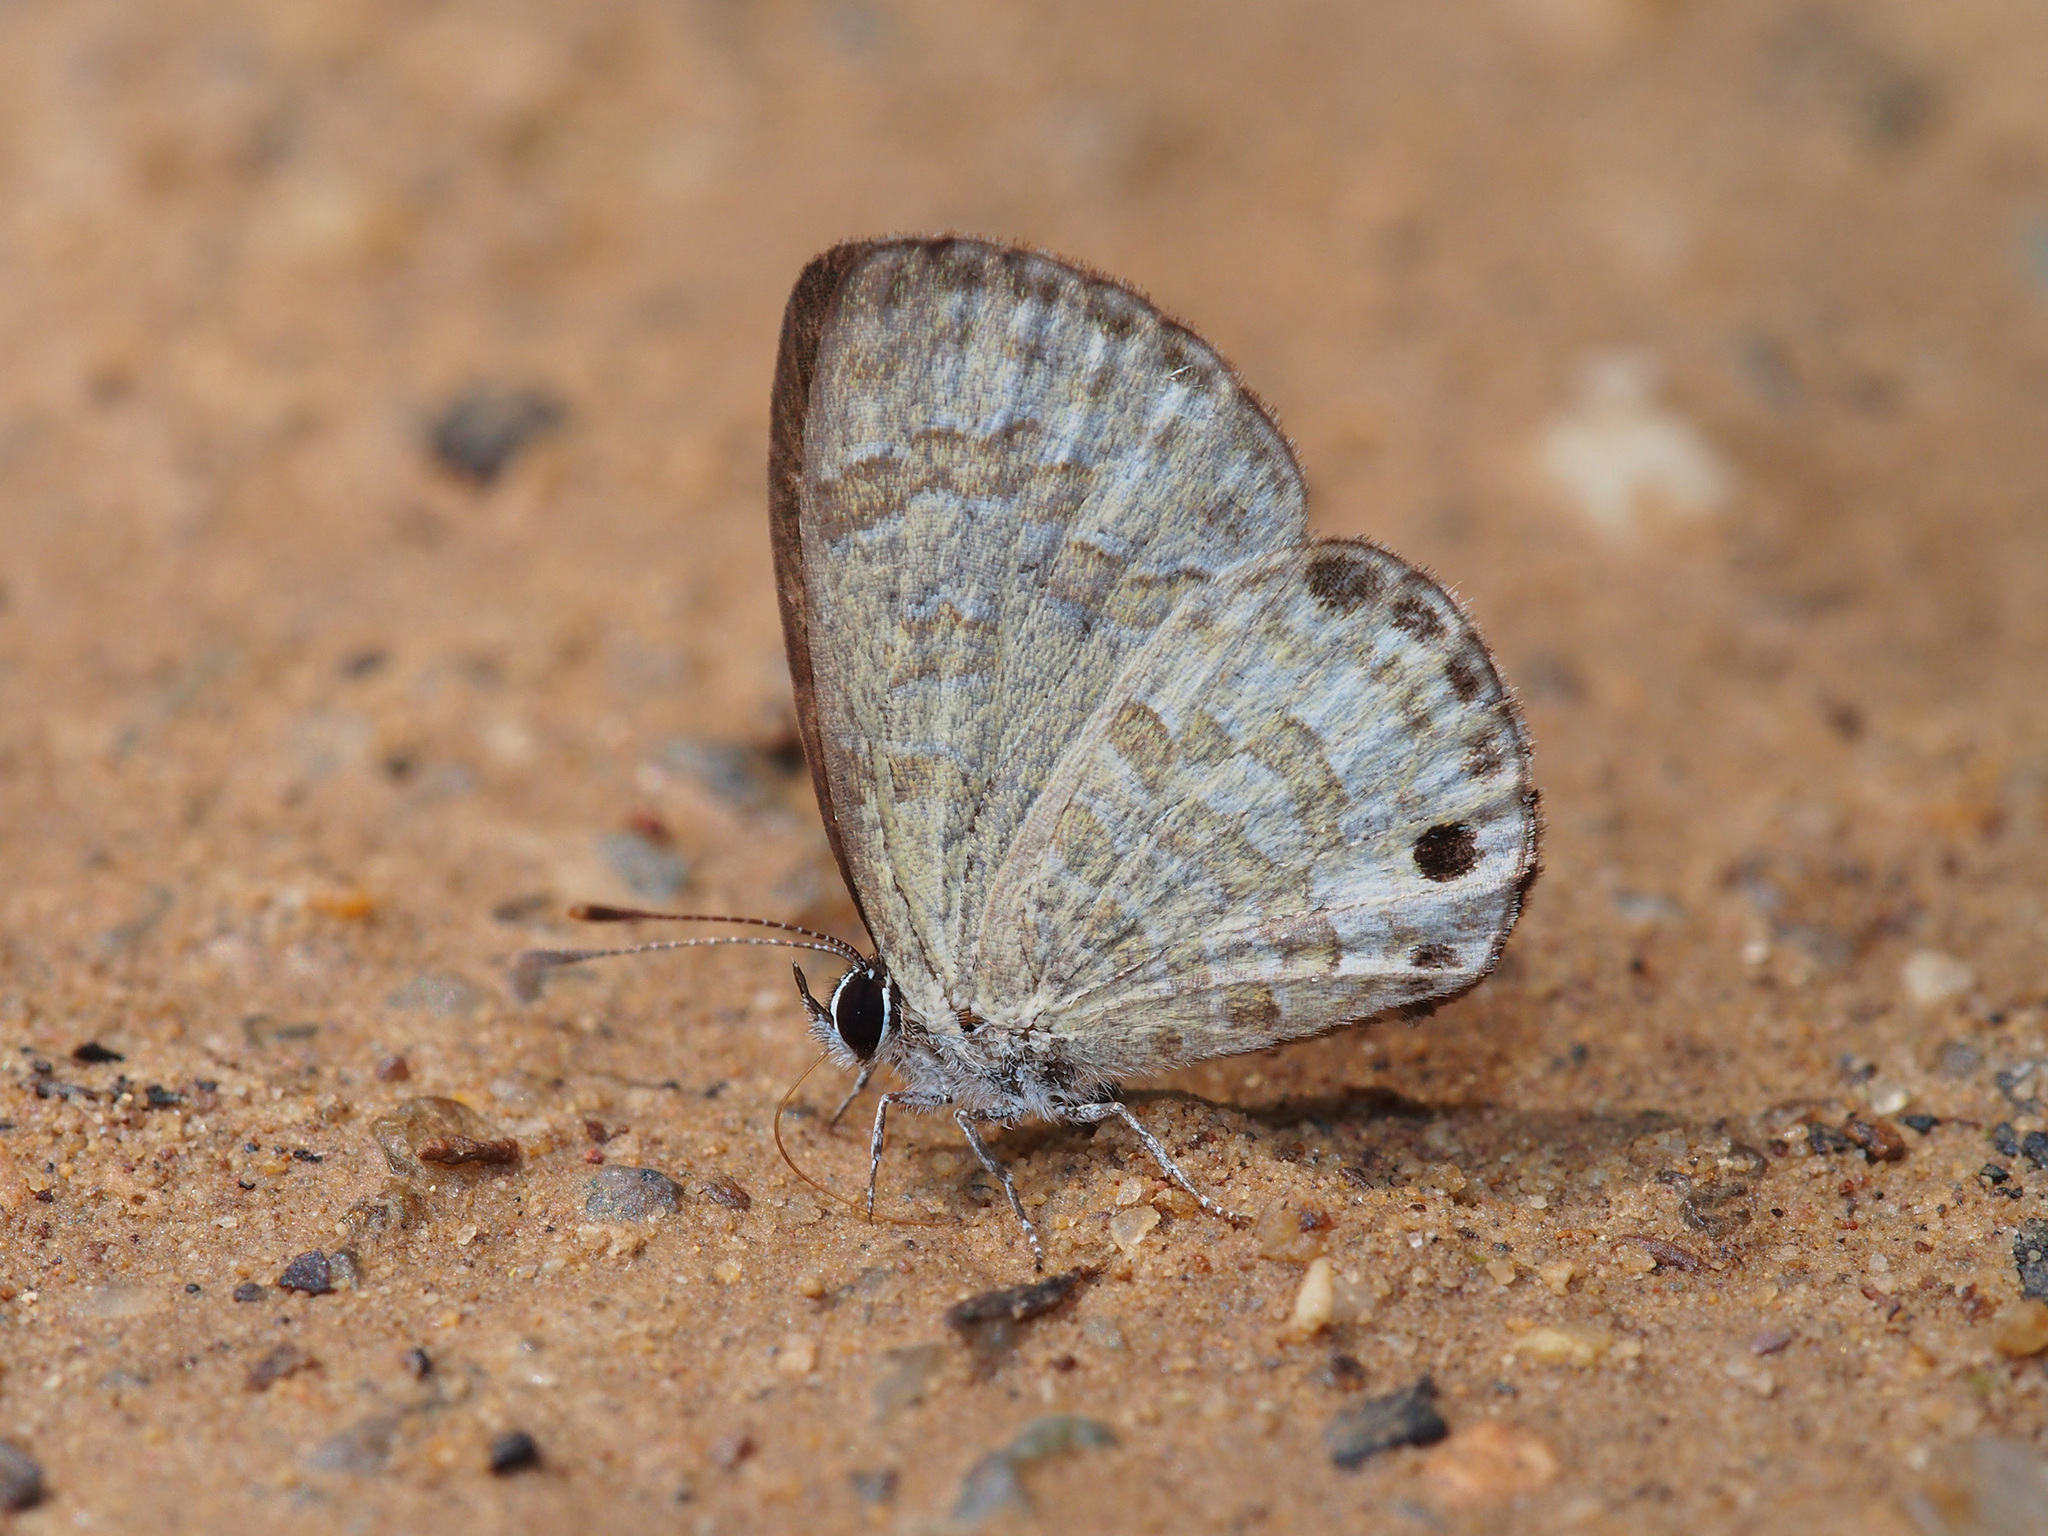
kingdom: Animalia
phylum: Arthropoda
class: Insecta
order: Lepidoptera
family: Lycaenidae
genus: Prosotas
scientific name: Prosotas lutea
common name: Brown lineblue
